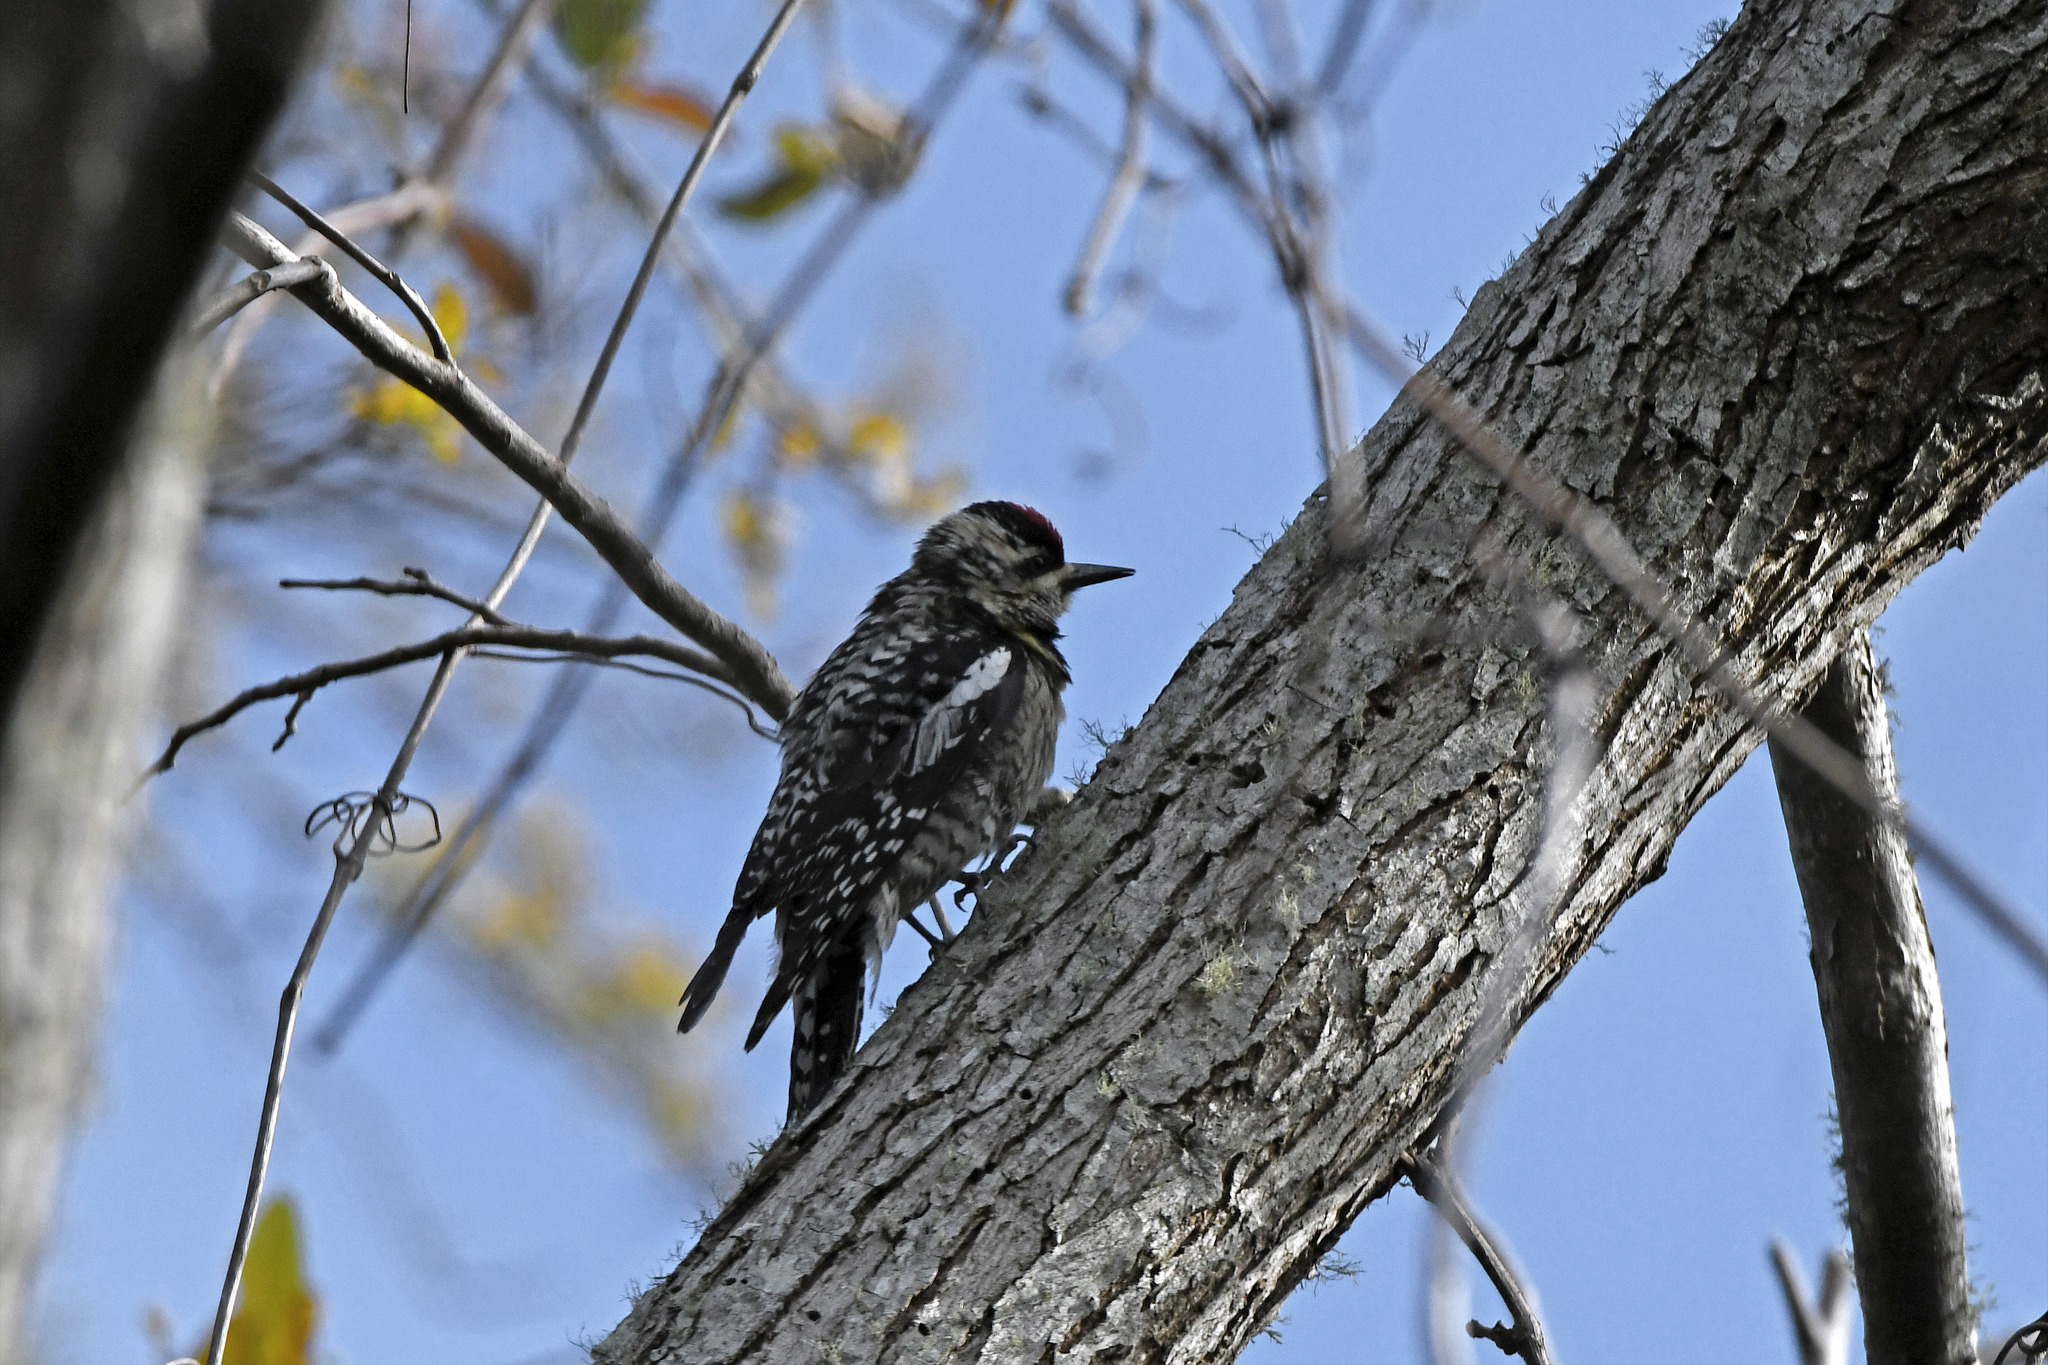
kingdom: Animalia
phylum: Chordata
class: Aves
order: Piciformes
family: Picidae
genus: Sphyrapicus
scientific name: Sphyrapicus varius
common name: Yellow-bellied sapsucker
